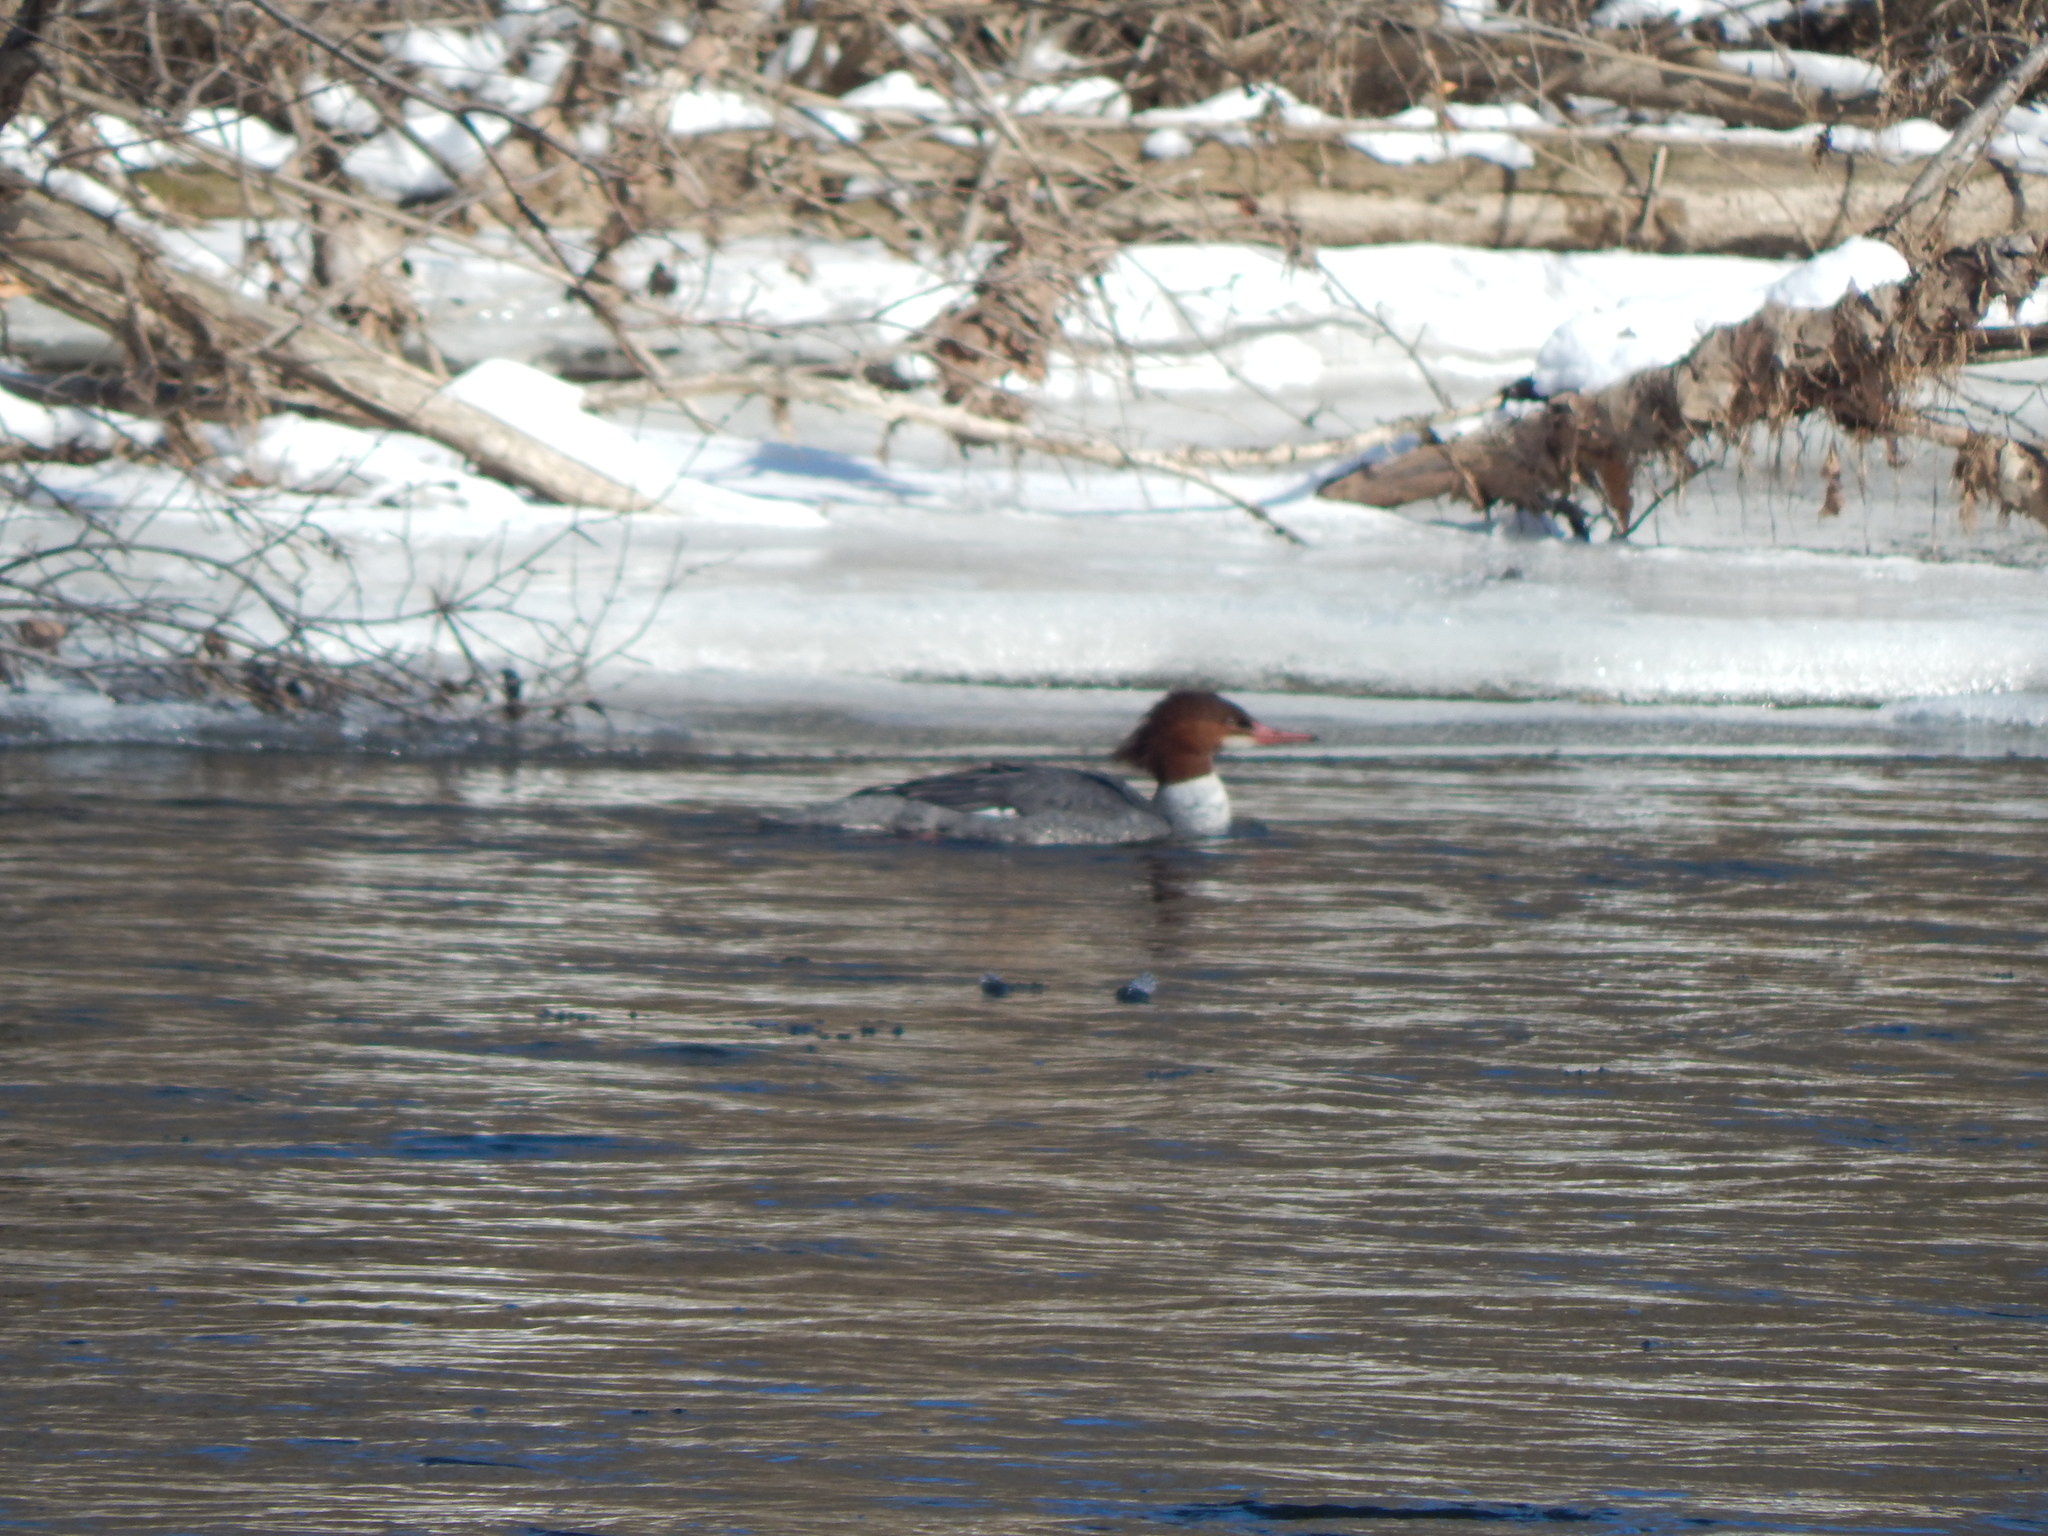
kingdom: Animalia
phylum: Chordata
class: Aves
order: Anseriformes
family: Anatidae
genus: Mergus
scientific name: Mergus merganser
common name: Common merganser
